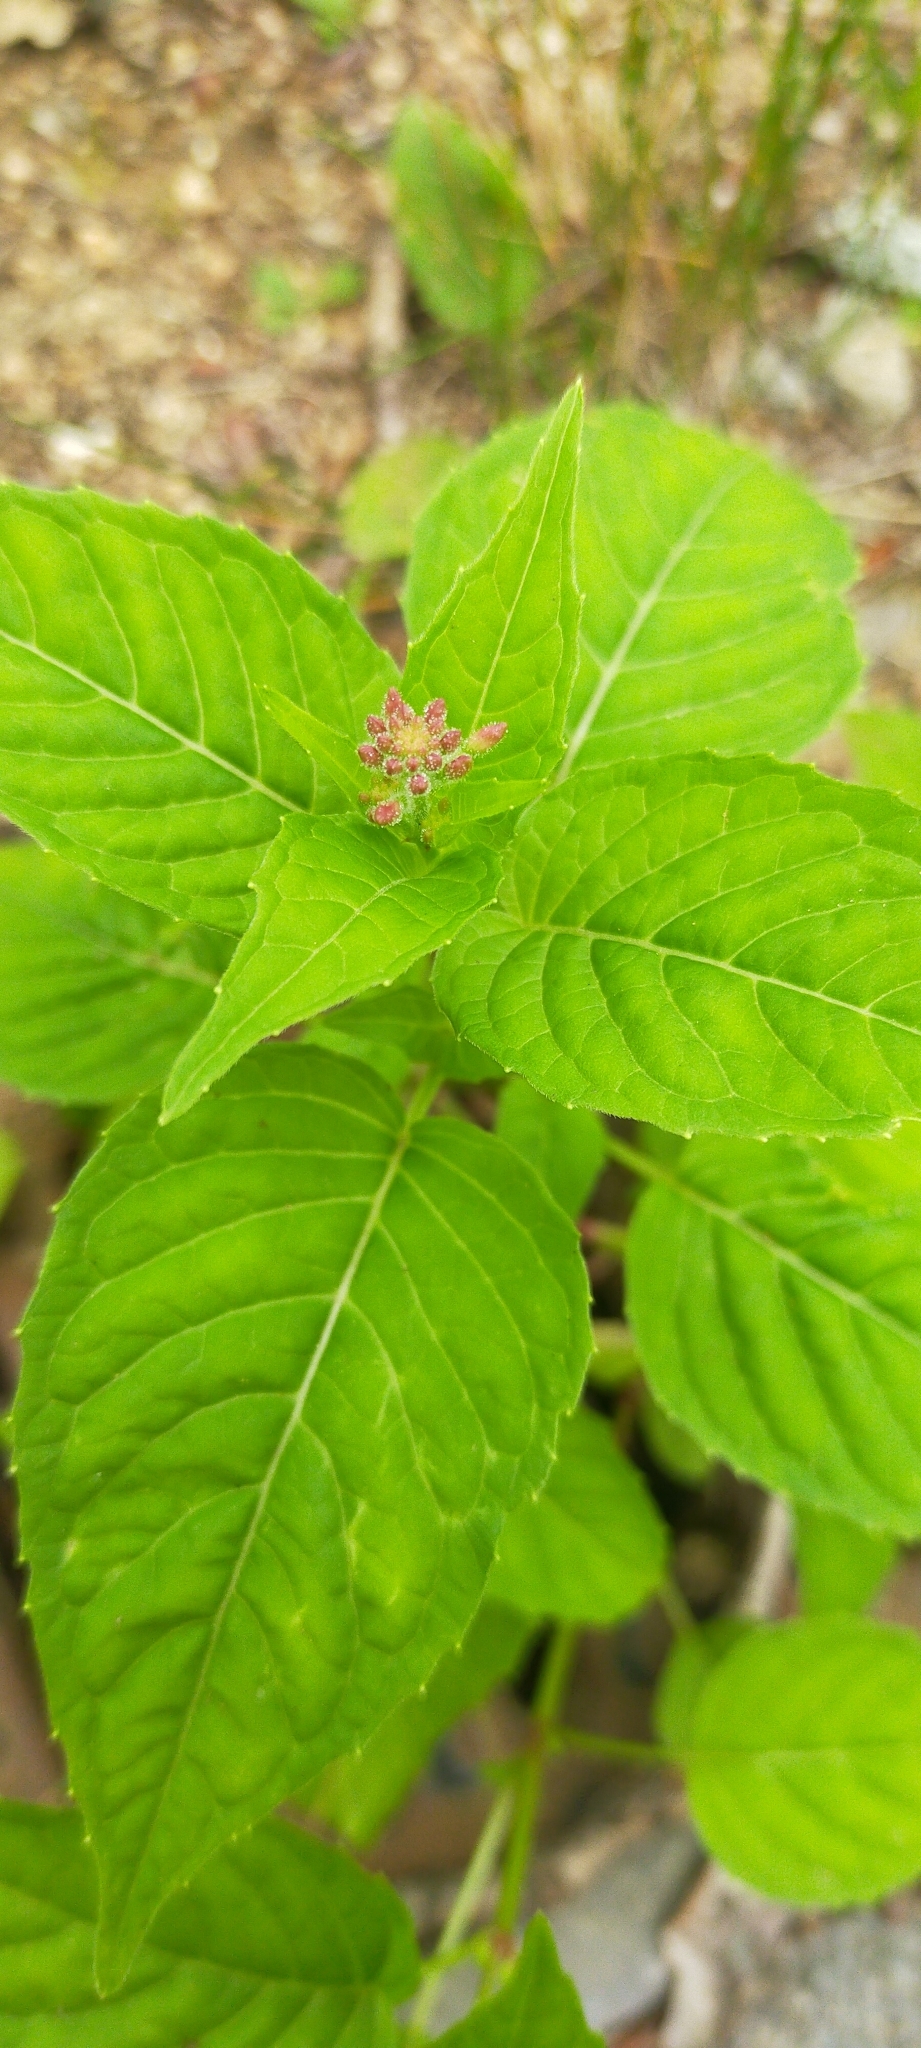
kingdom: Plantae
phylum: Tracheophyta
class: Magnoliopsida
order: Myrtales
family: Onagraceae
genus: Circaea
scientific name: Circaea canadensis
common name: Broad-leaved enchanter's nightshade
